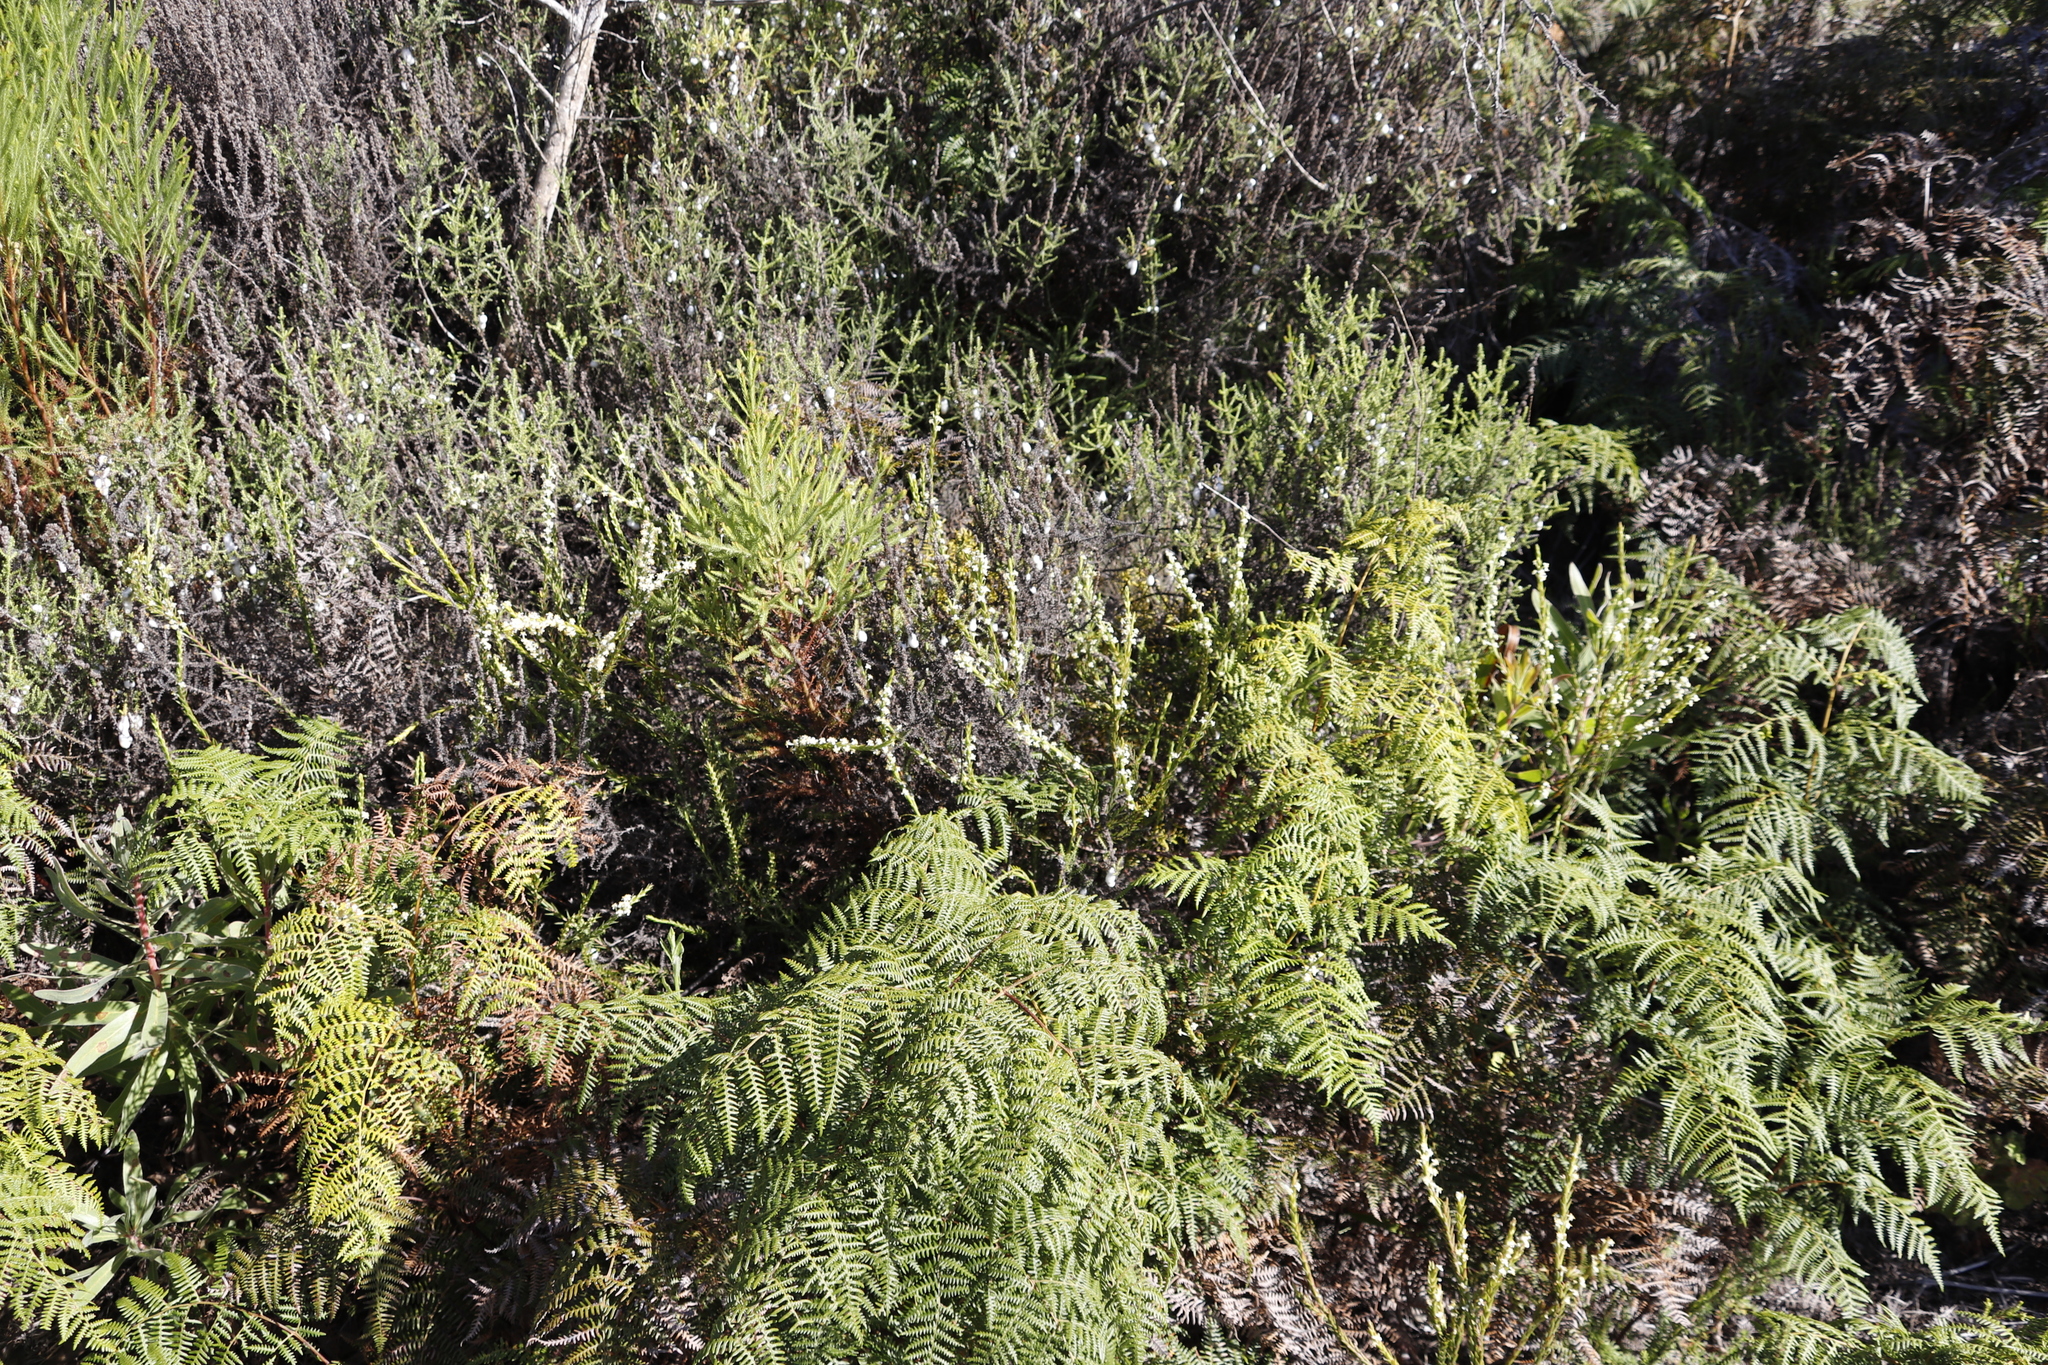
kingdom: Plantae
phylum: Tracheophyta
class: Polypodiopsida
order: Polypodiales
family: Dennstaedtiaceae
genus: Pteridium
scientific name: Pteridium aquilinum
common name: Bracken
